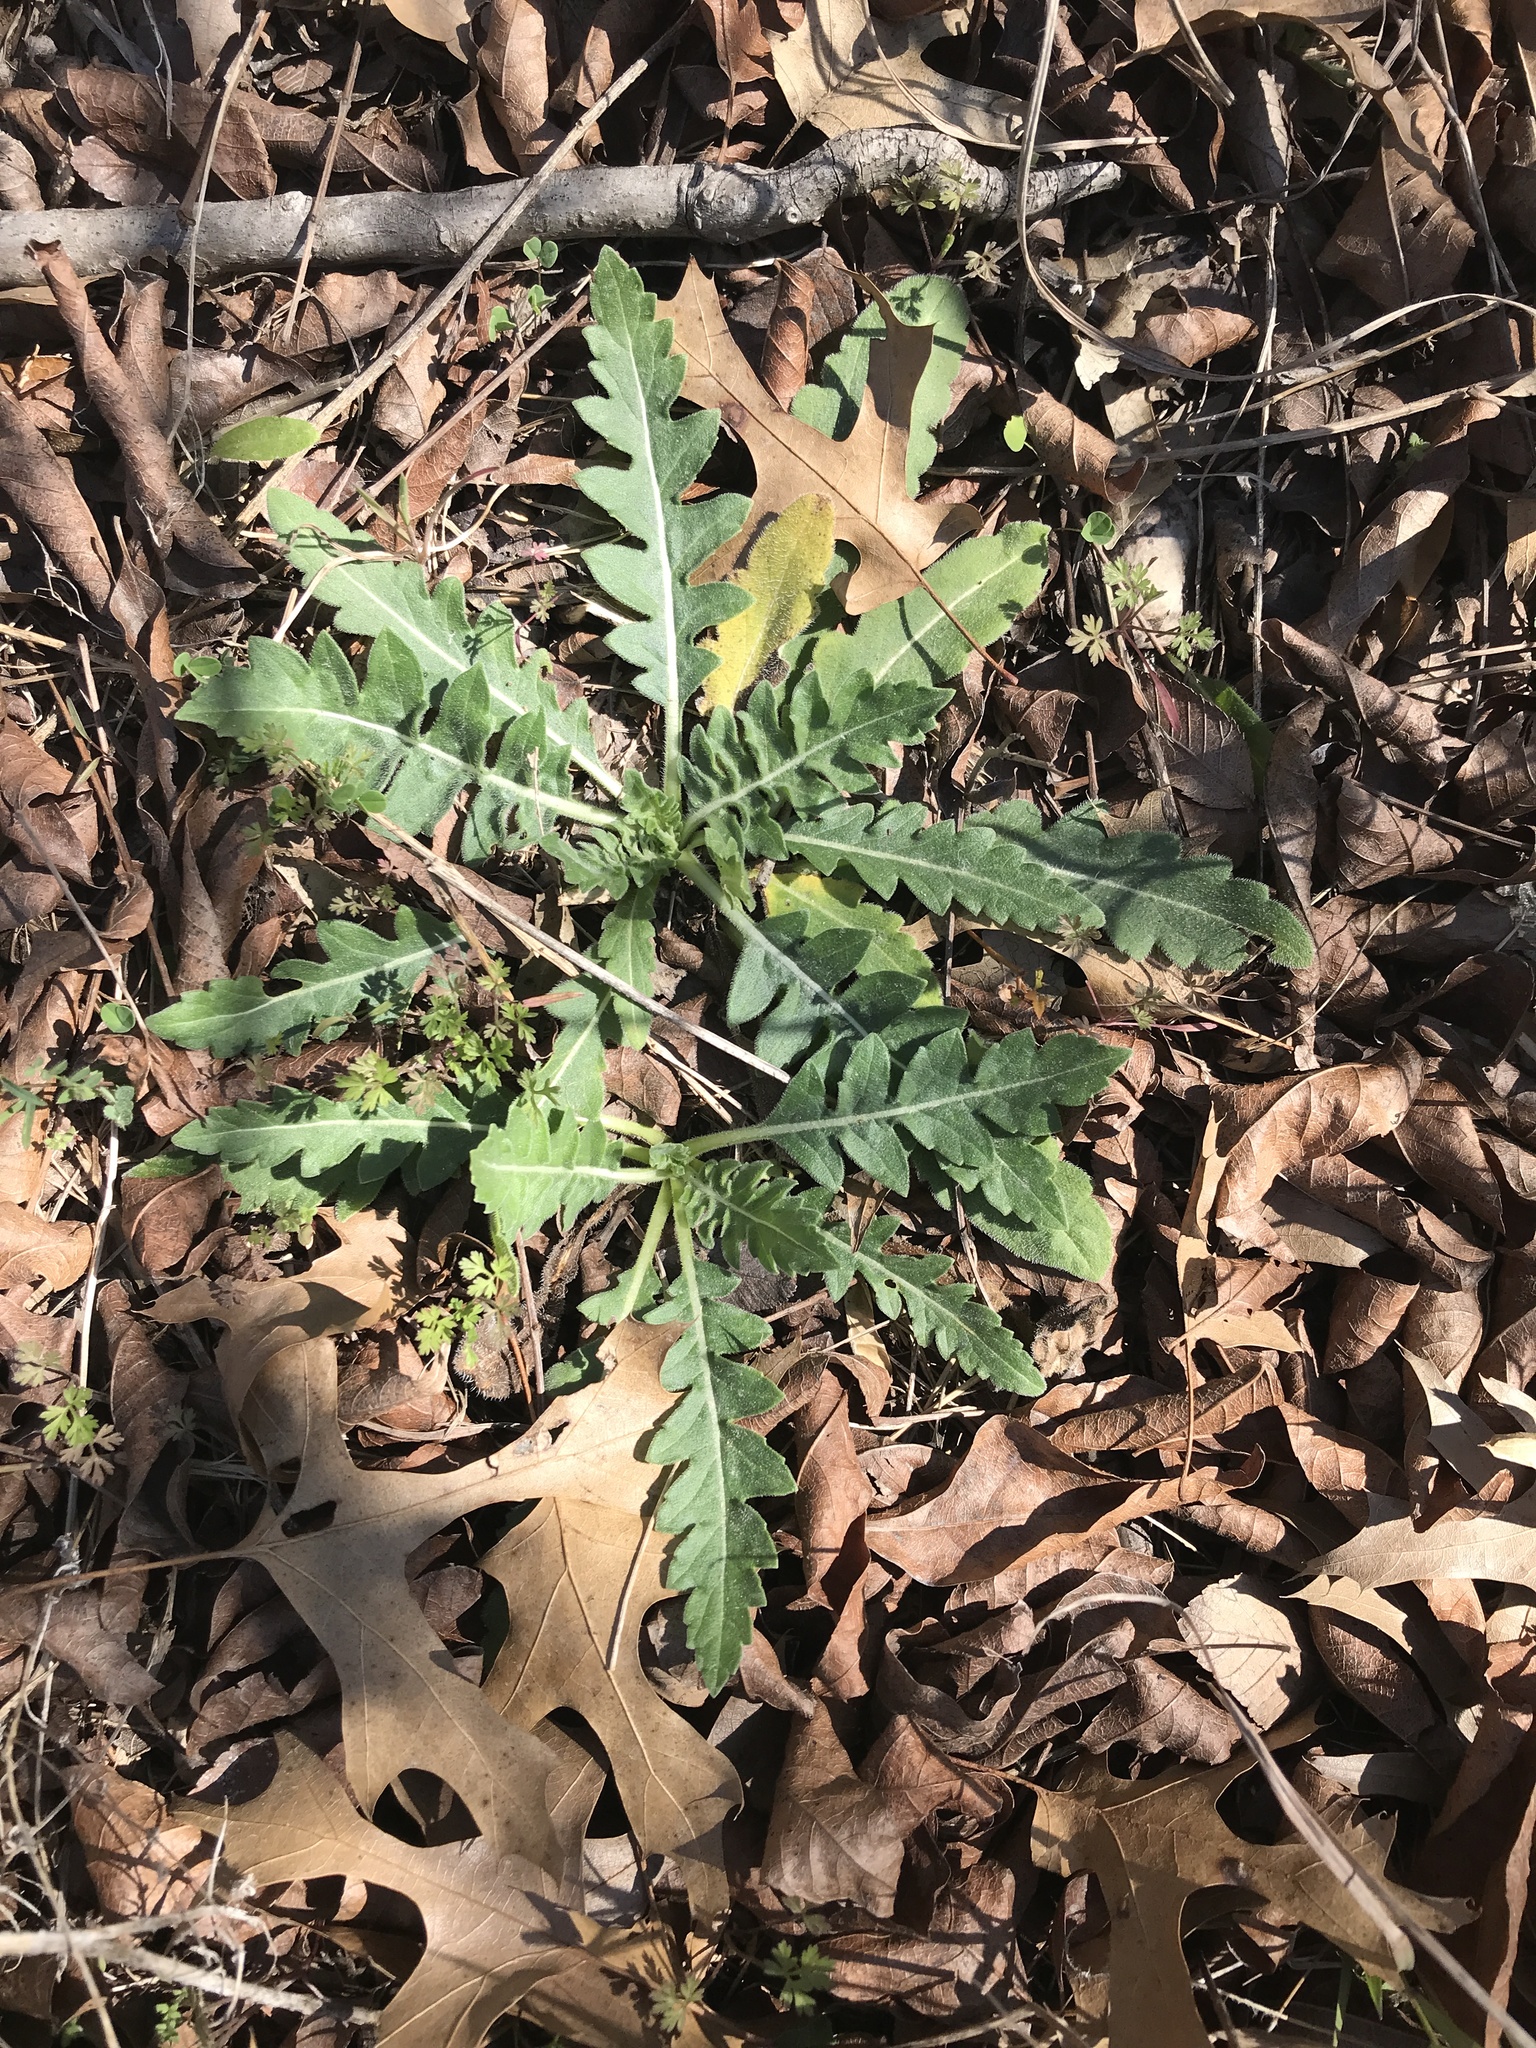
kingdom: Plantae
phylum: Tracheophyta
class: Magnoliopsida
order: Asterales
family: Asteraceae
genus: Engelmannia
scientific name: Engelmannia peristenia
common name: Engelmann's daisy
